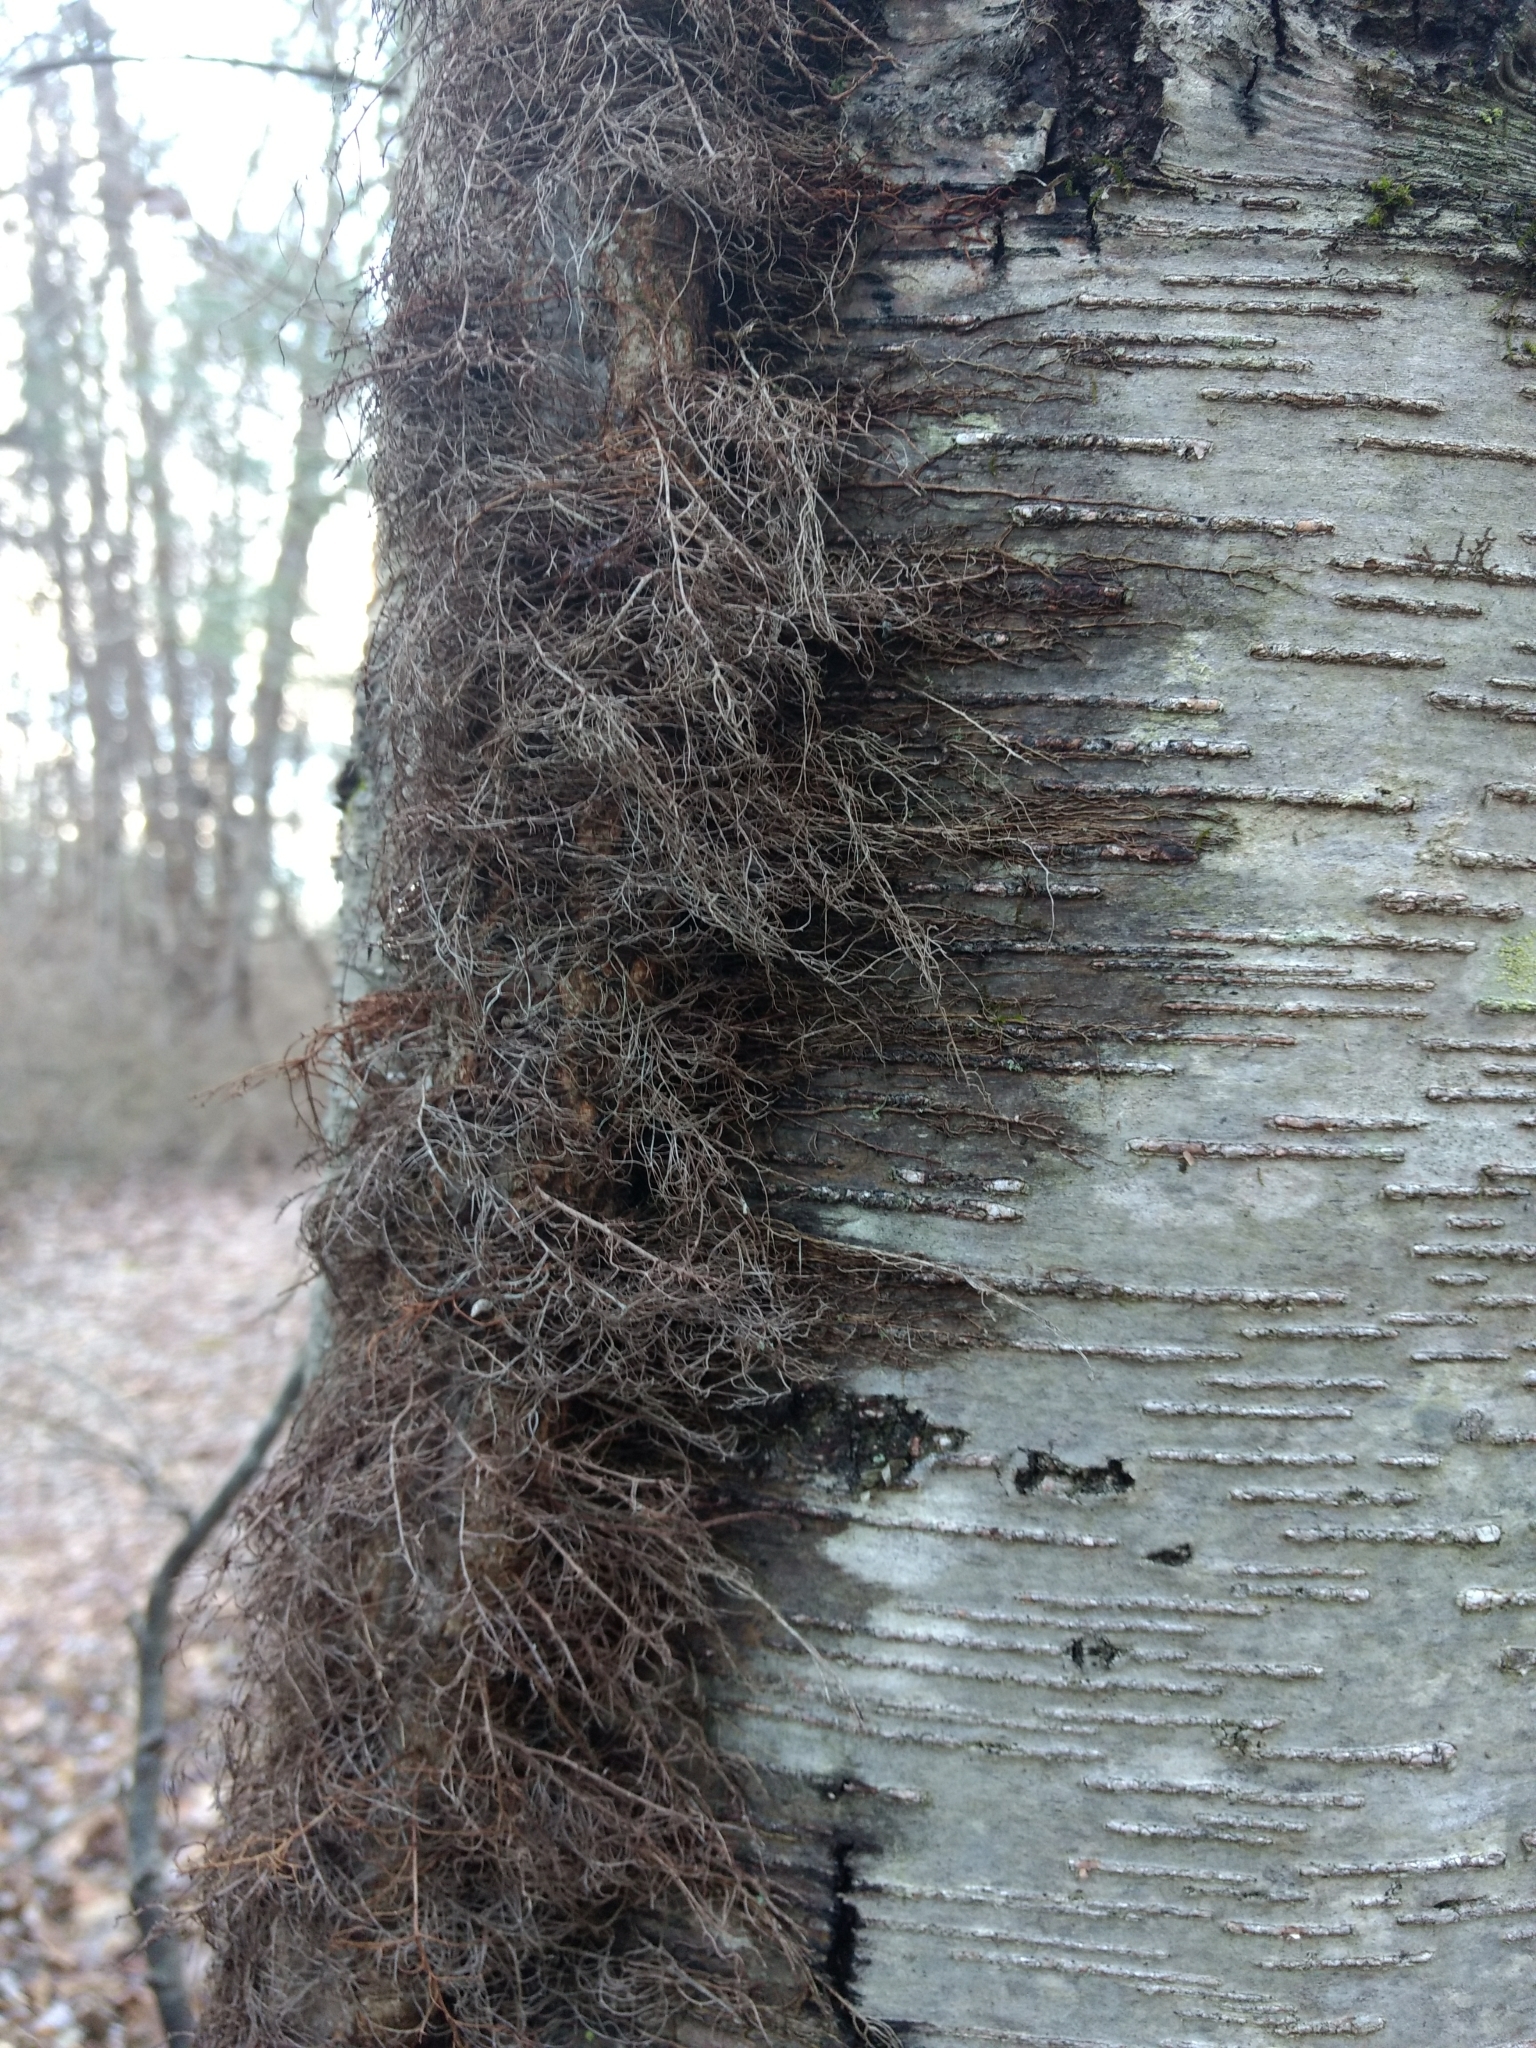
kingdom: Plantae
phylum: Tracheophyta
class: Magnoliopsida
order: Sapindales
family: Anacardiaceae
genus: Toxicodendron
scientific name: Toxicodendron radicans
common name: Poison ivy
